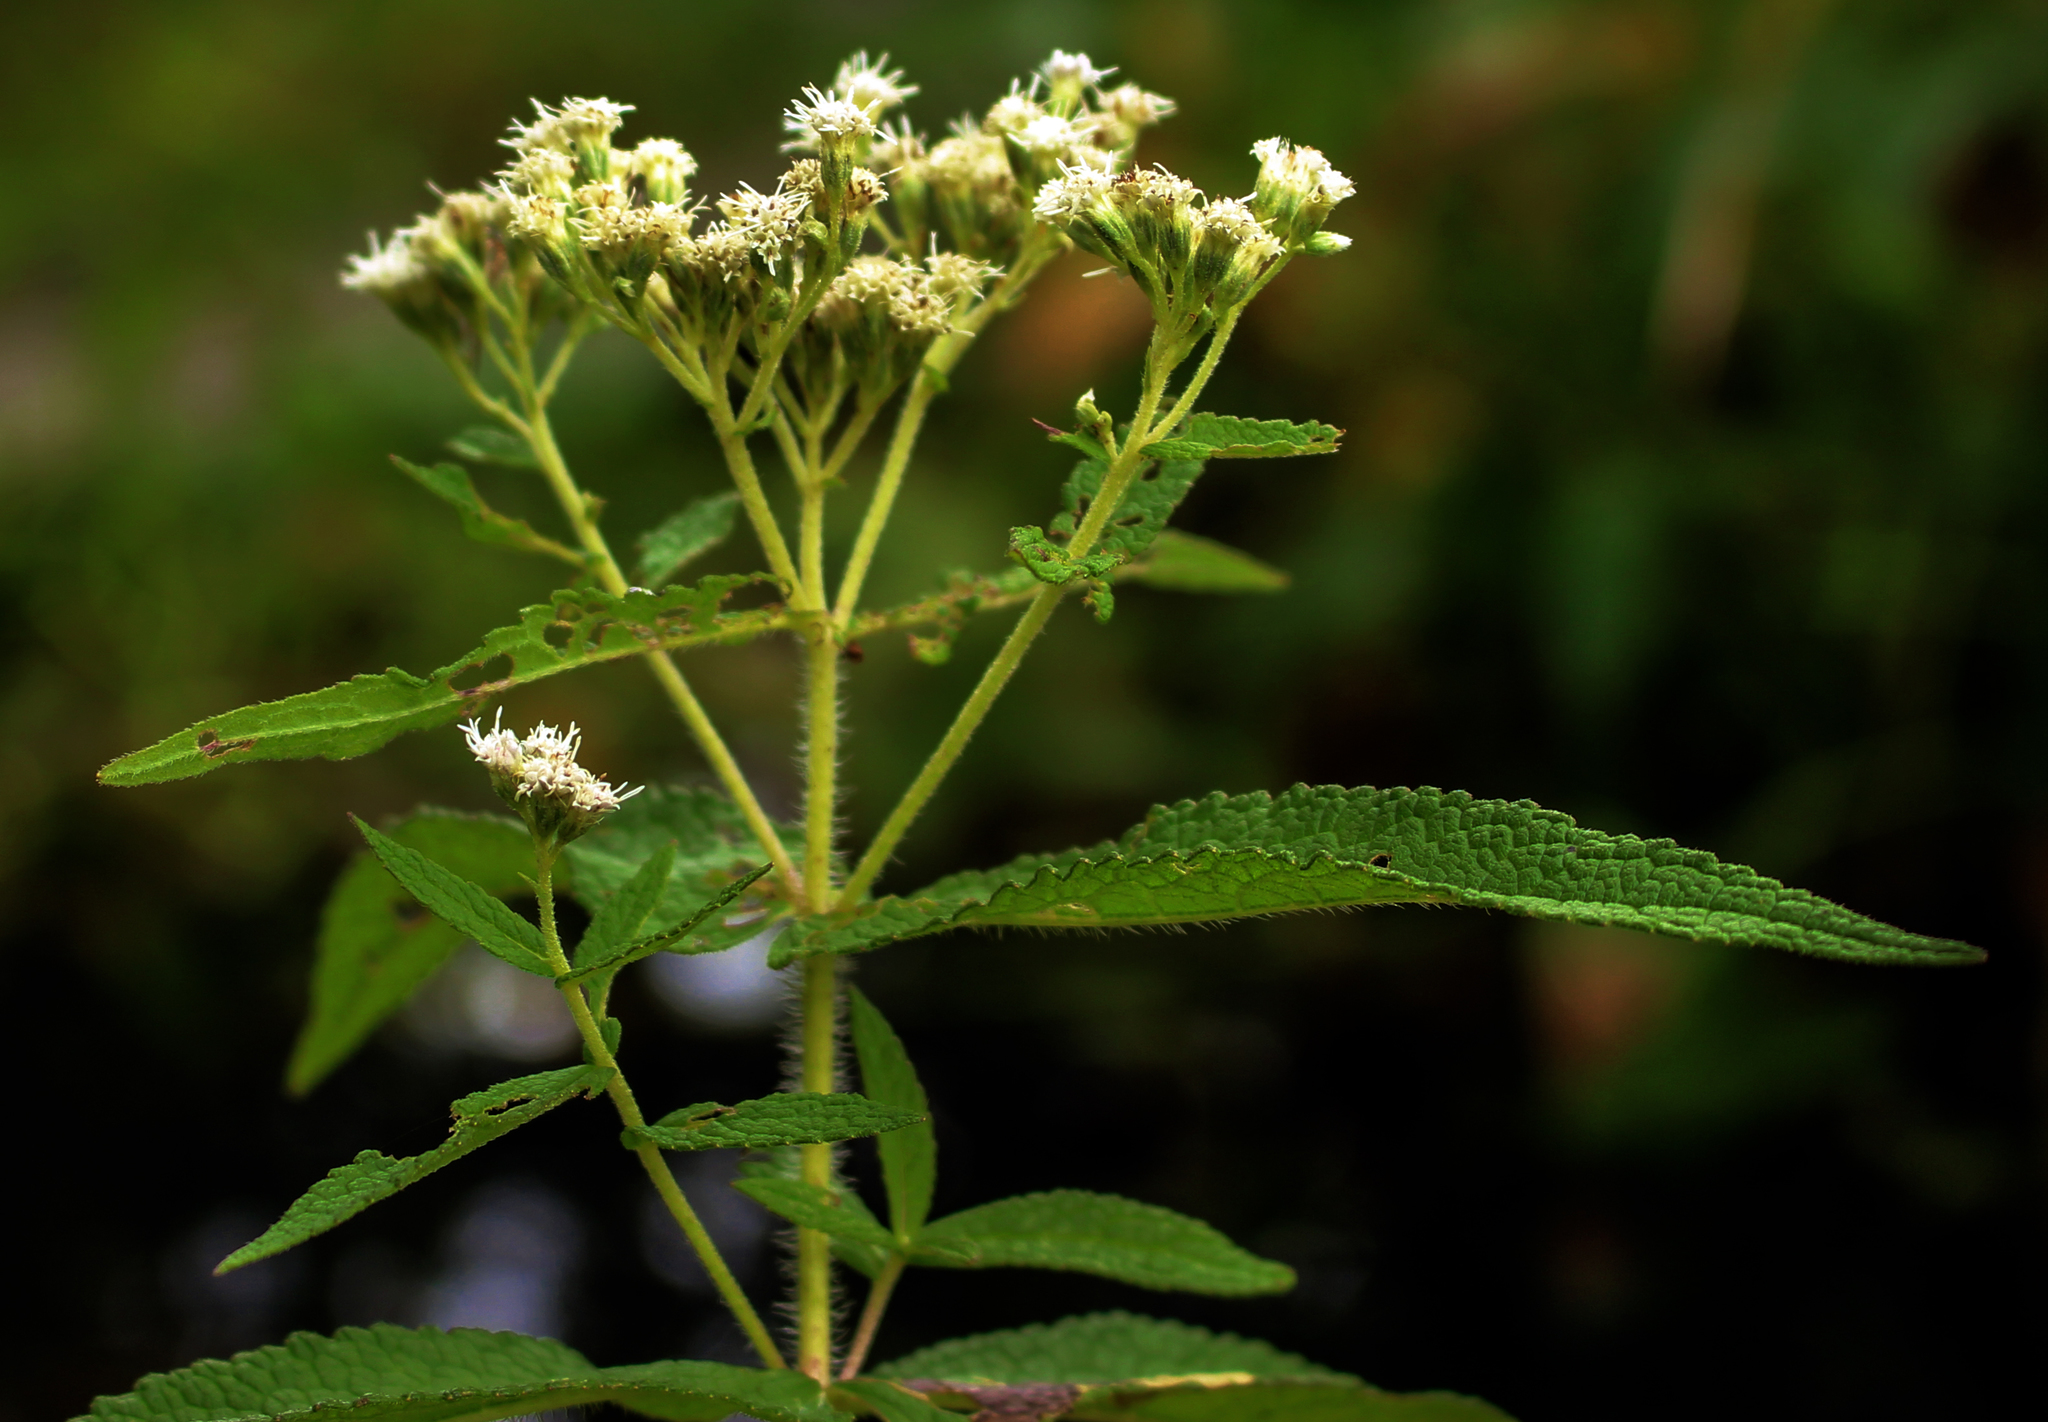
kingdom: Plantae
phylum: Tracheophyta
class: Magnoliopsida
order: Asterales
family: Asteraceae
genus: Eupatorium
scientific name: Eupatorium perfoliatum
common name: Boneset
